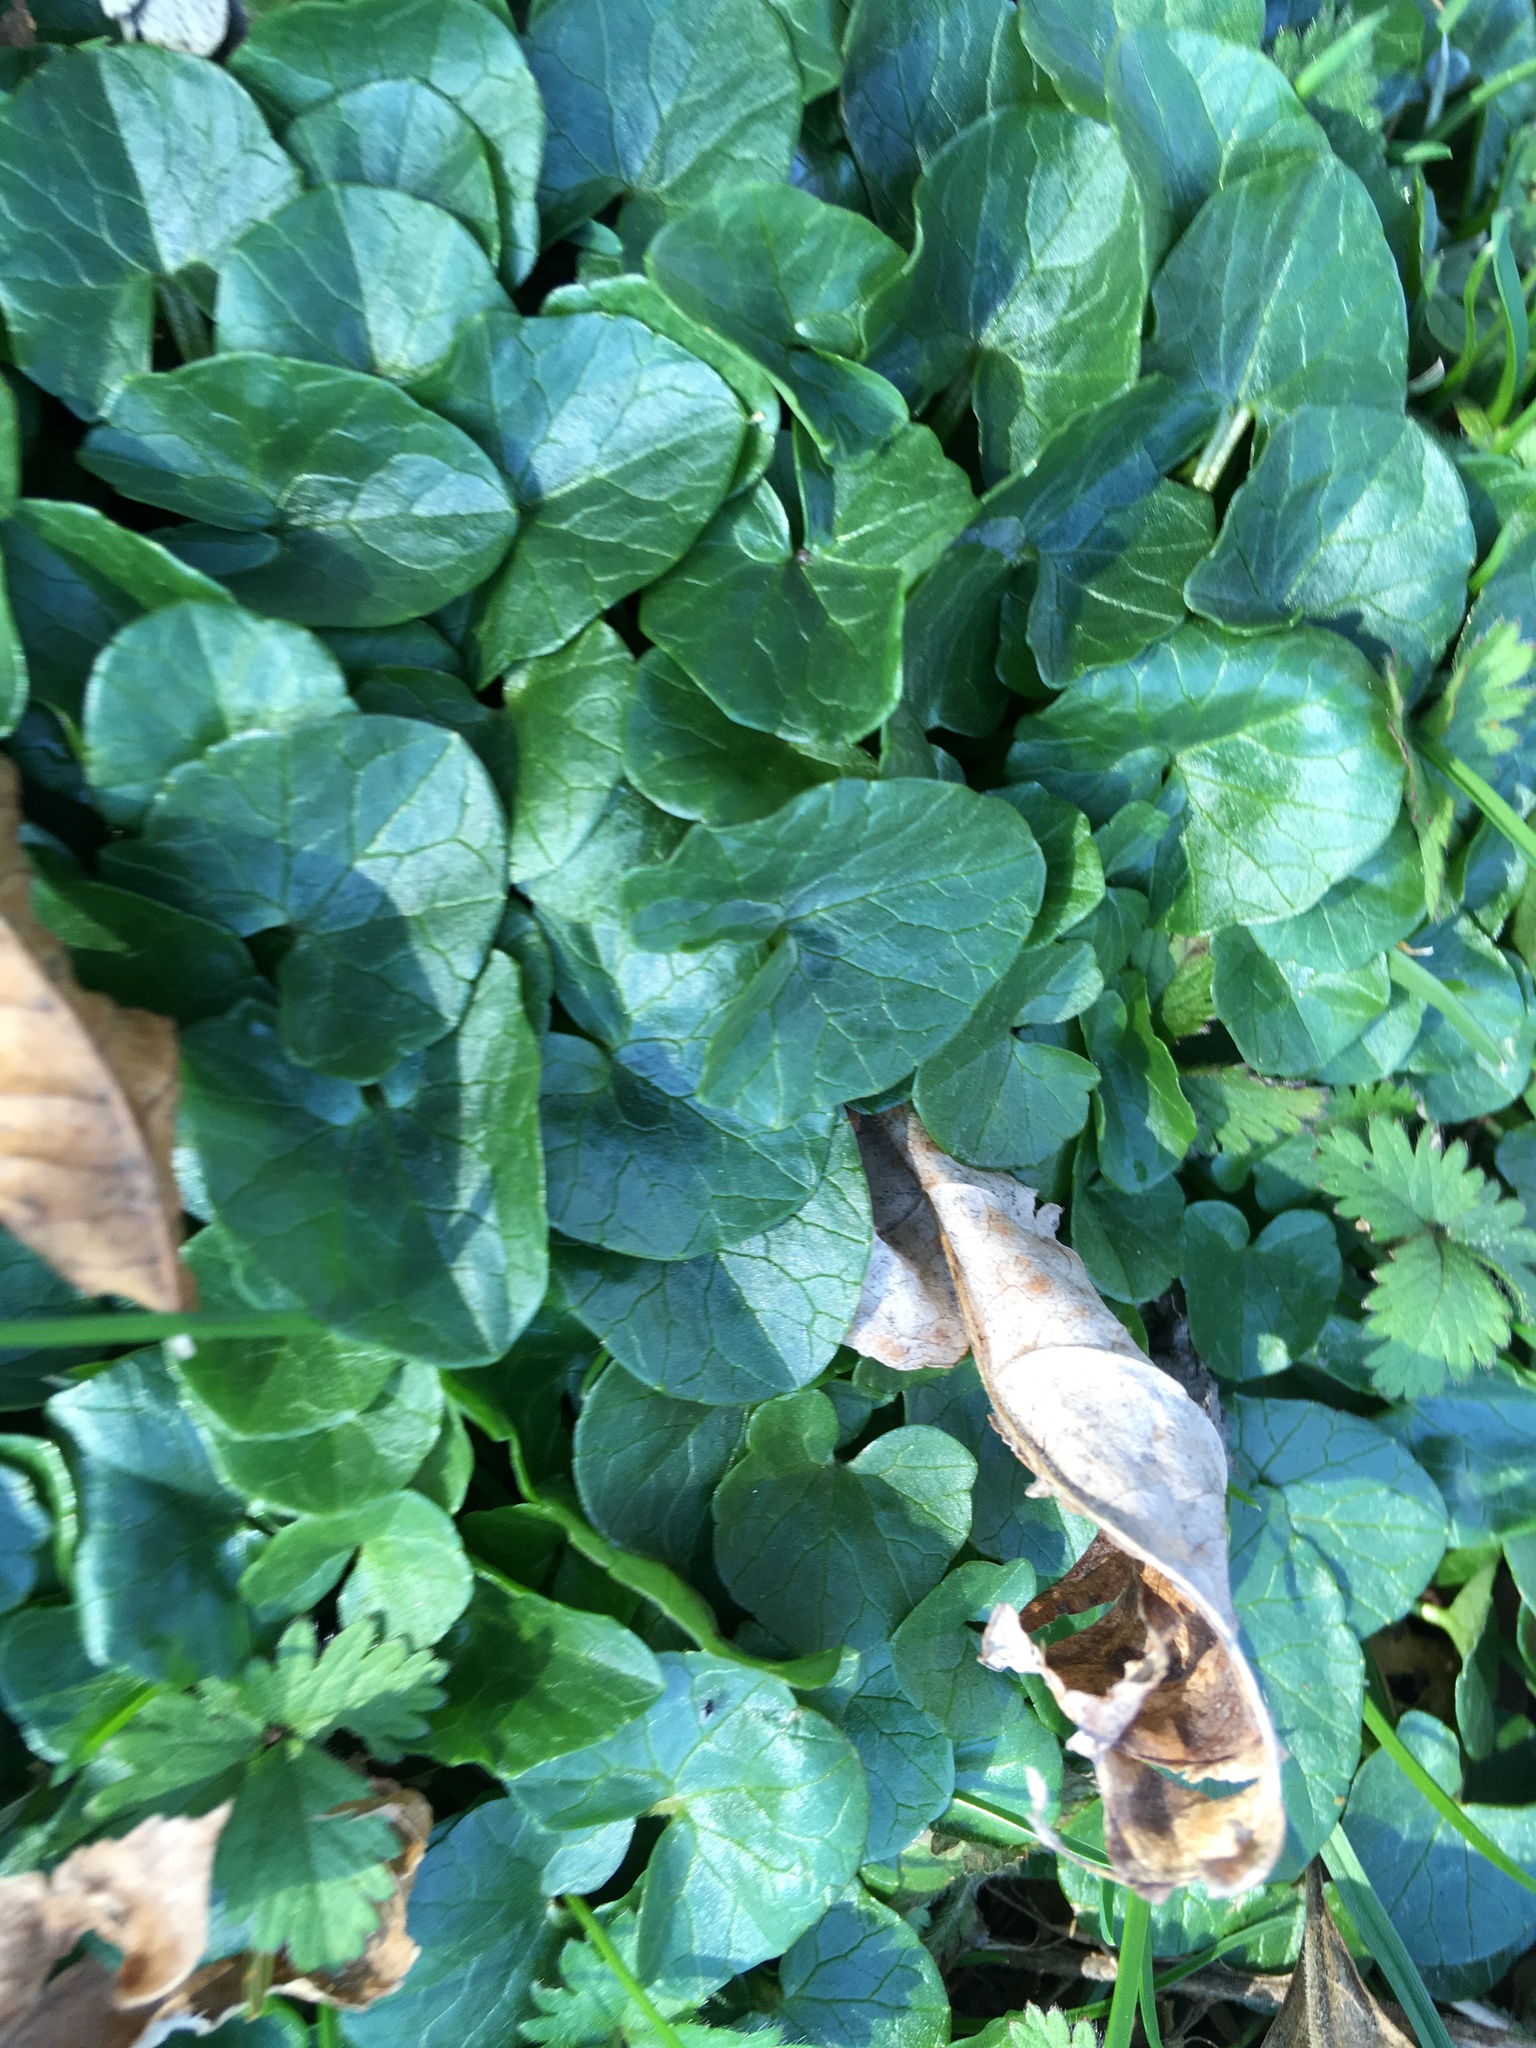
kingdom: Plantae
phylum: Tracheophyta
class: Magnoliopsida
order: Ranunculales
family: Ranunculaceae
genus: Ficaria
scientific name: Ficaria verna
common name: Lesser celandine
